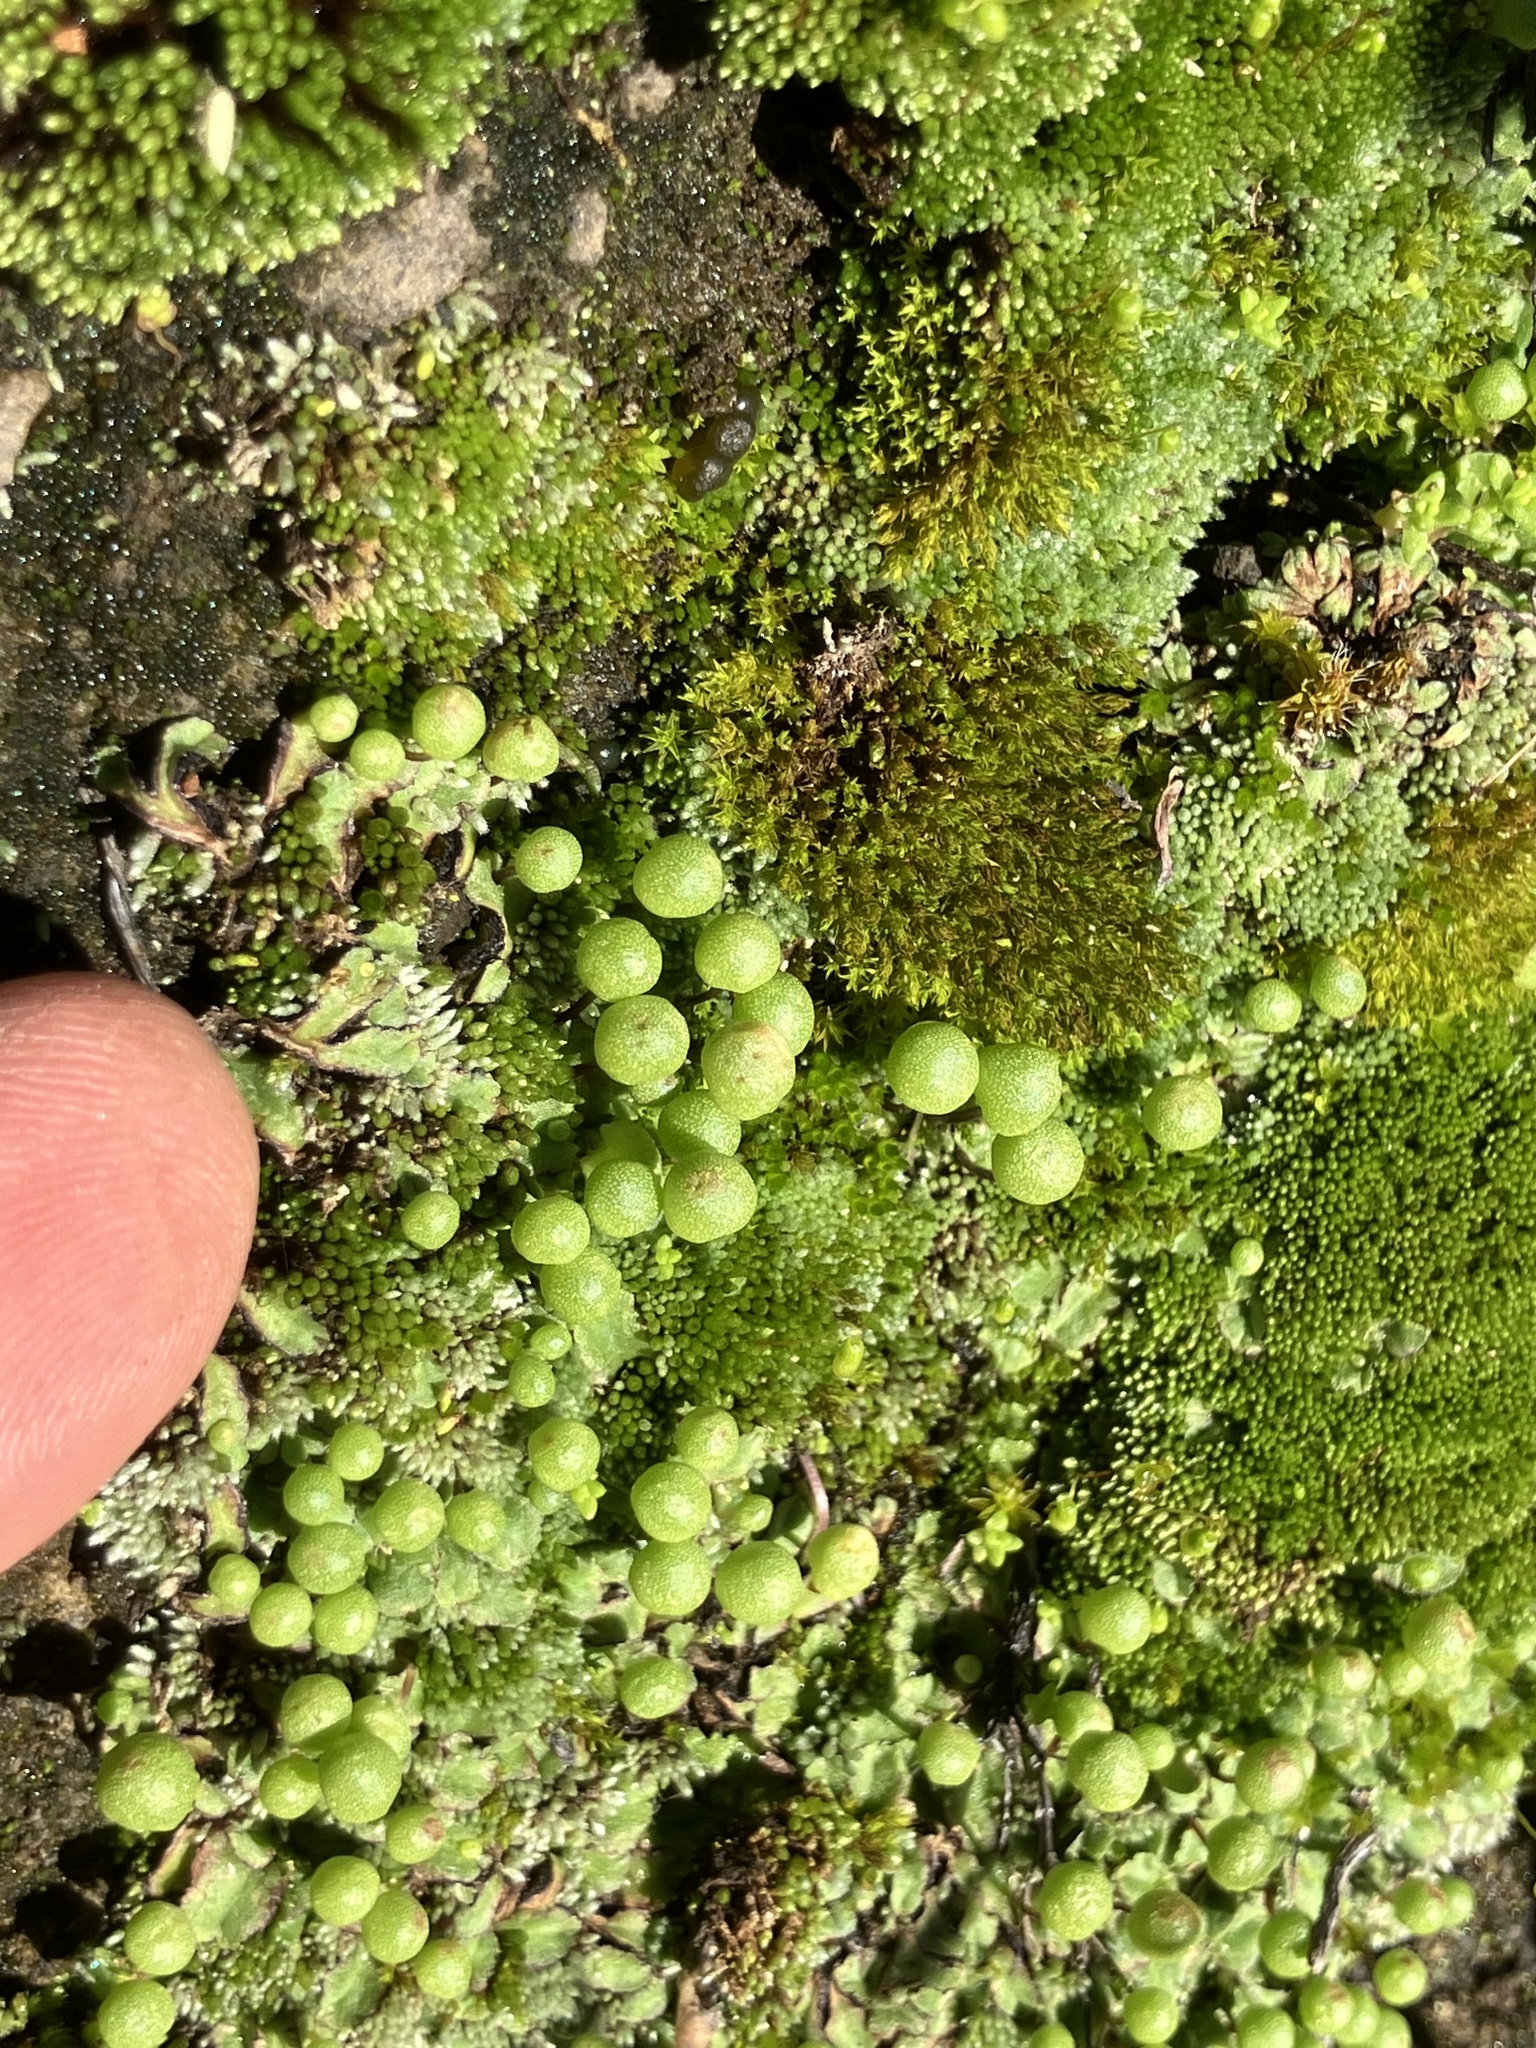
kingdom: Plantae
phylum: Marchantiophyta
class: Marchantiopsida
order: Marchantiales
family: Aytoniaceae
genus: Asterella
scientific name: Asterella palmeri
